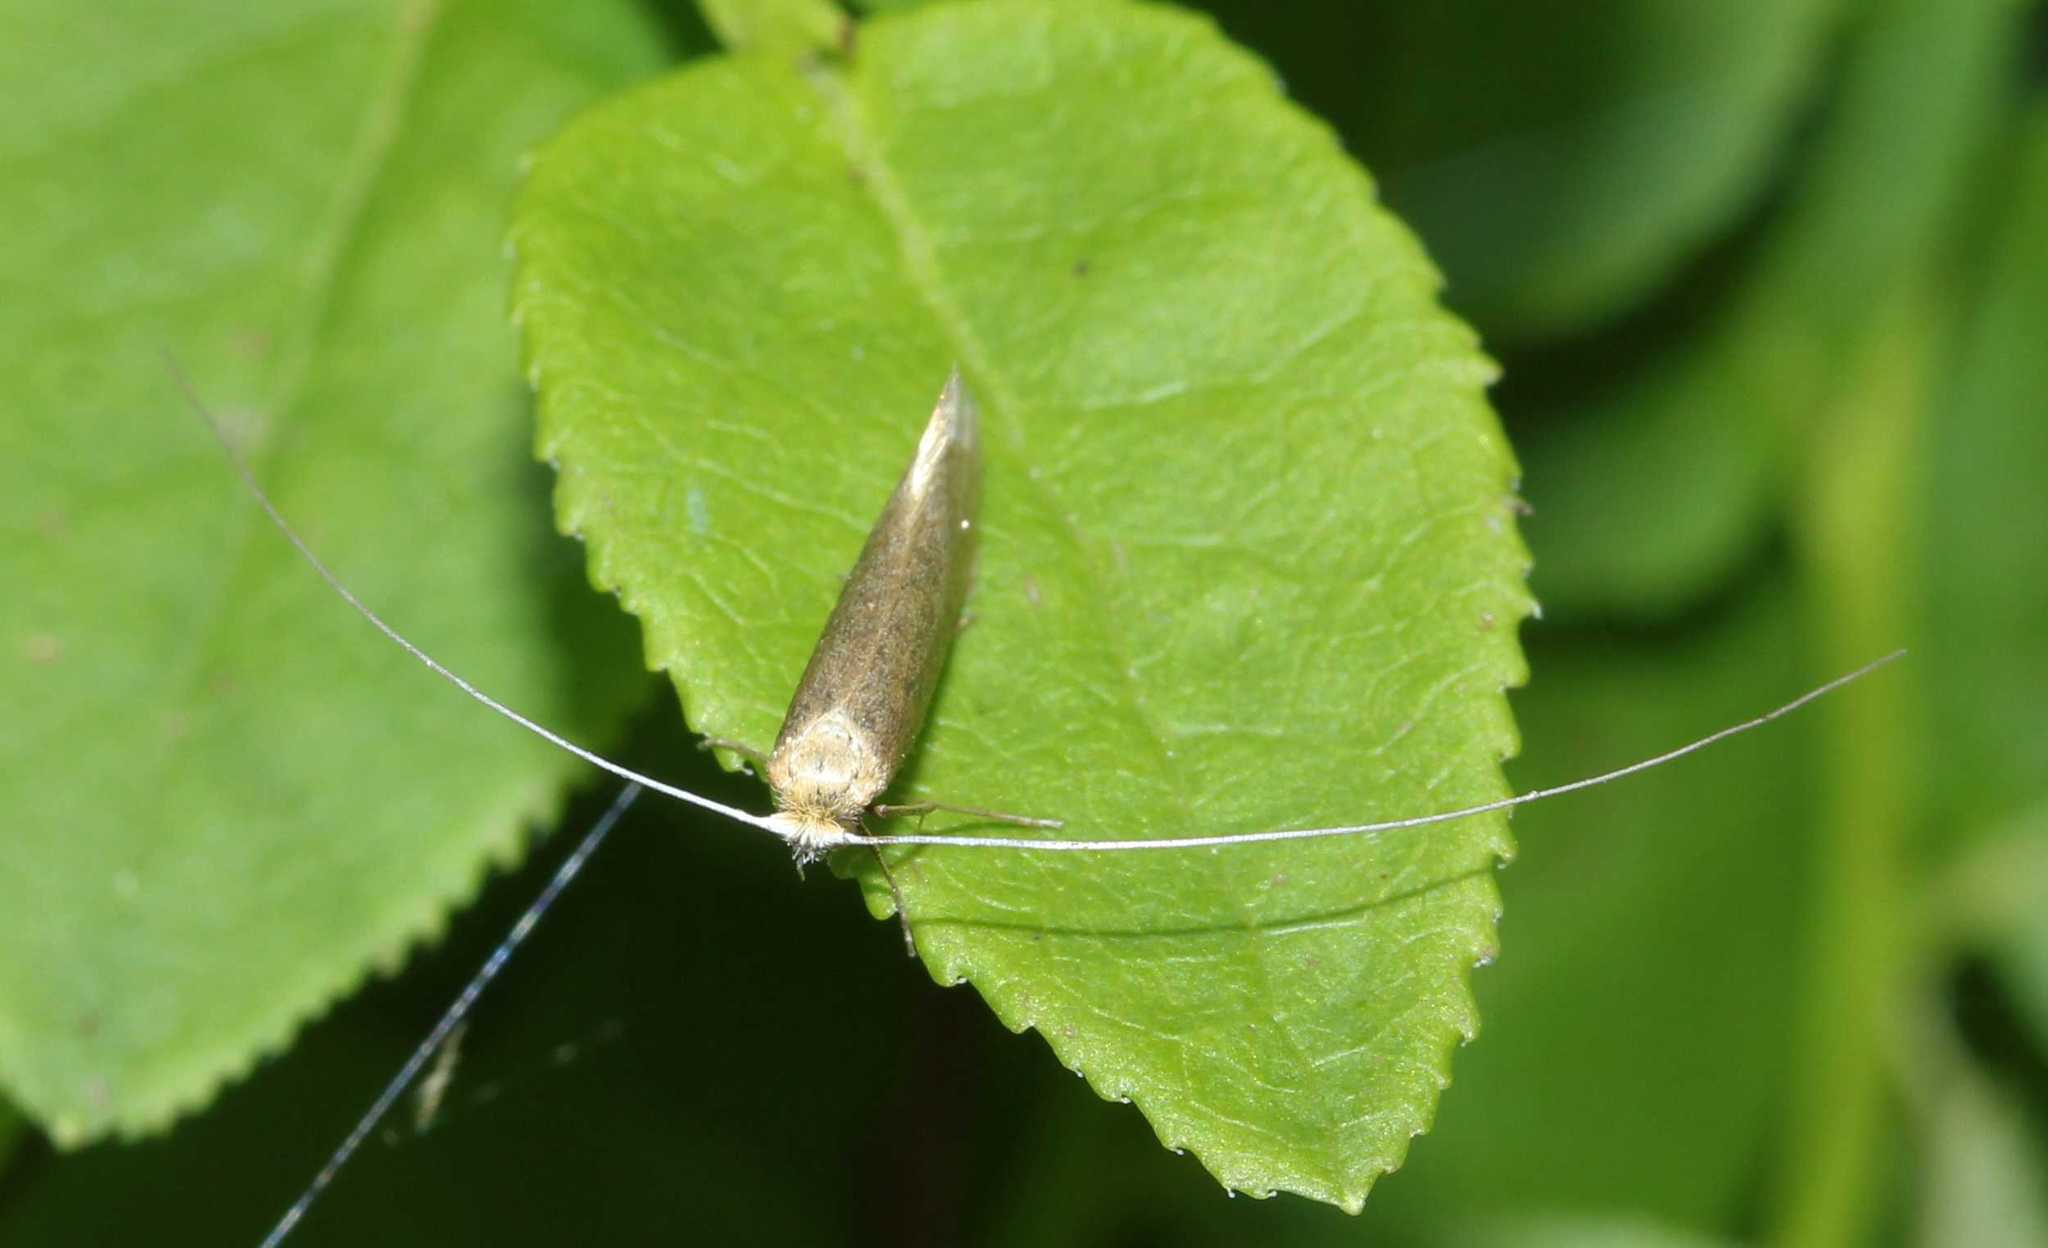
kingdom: Animalia
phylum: Arthropoda
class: Insecta
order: Lepidoptera
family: Adelidae
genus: Nematopogon
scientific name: Nematopogon
